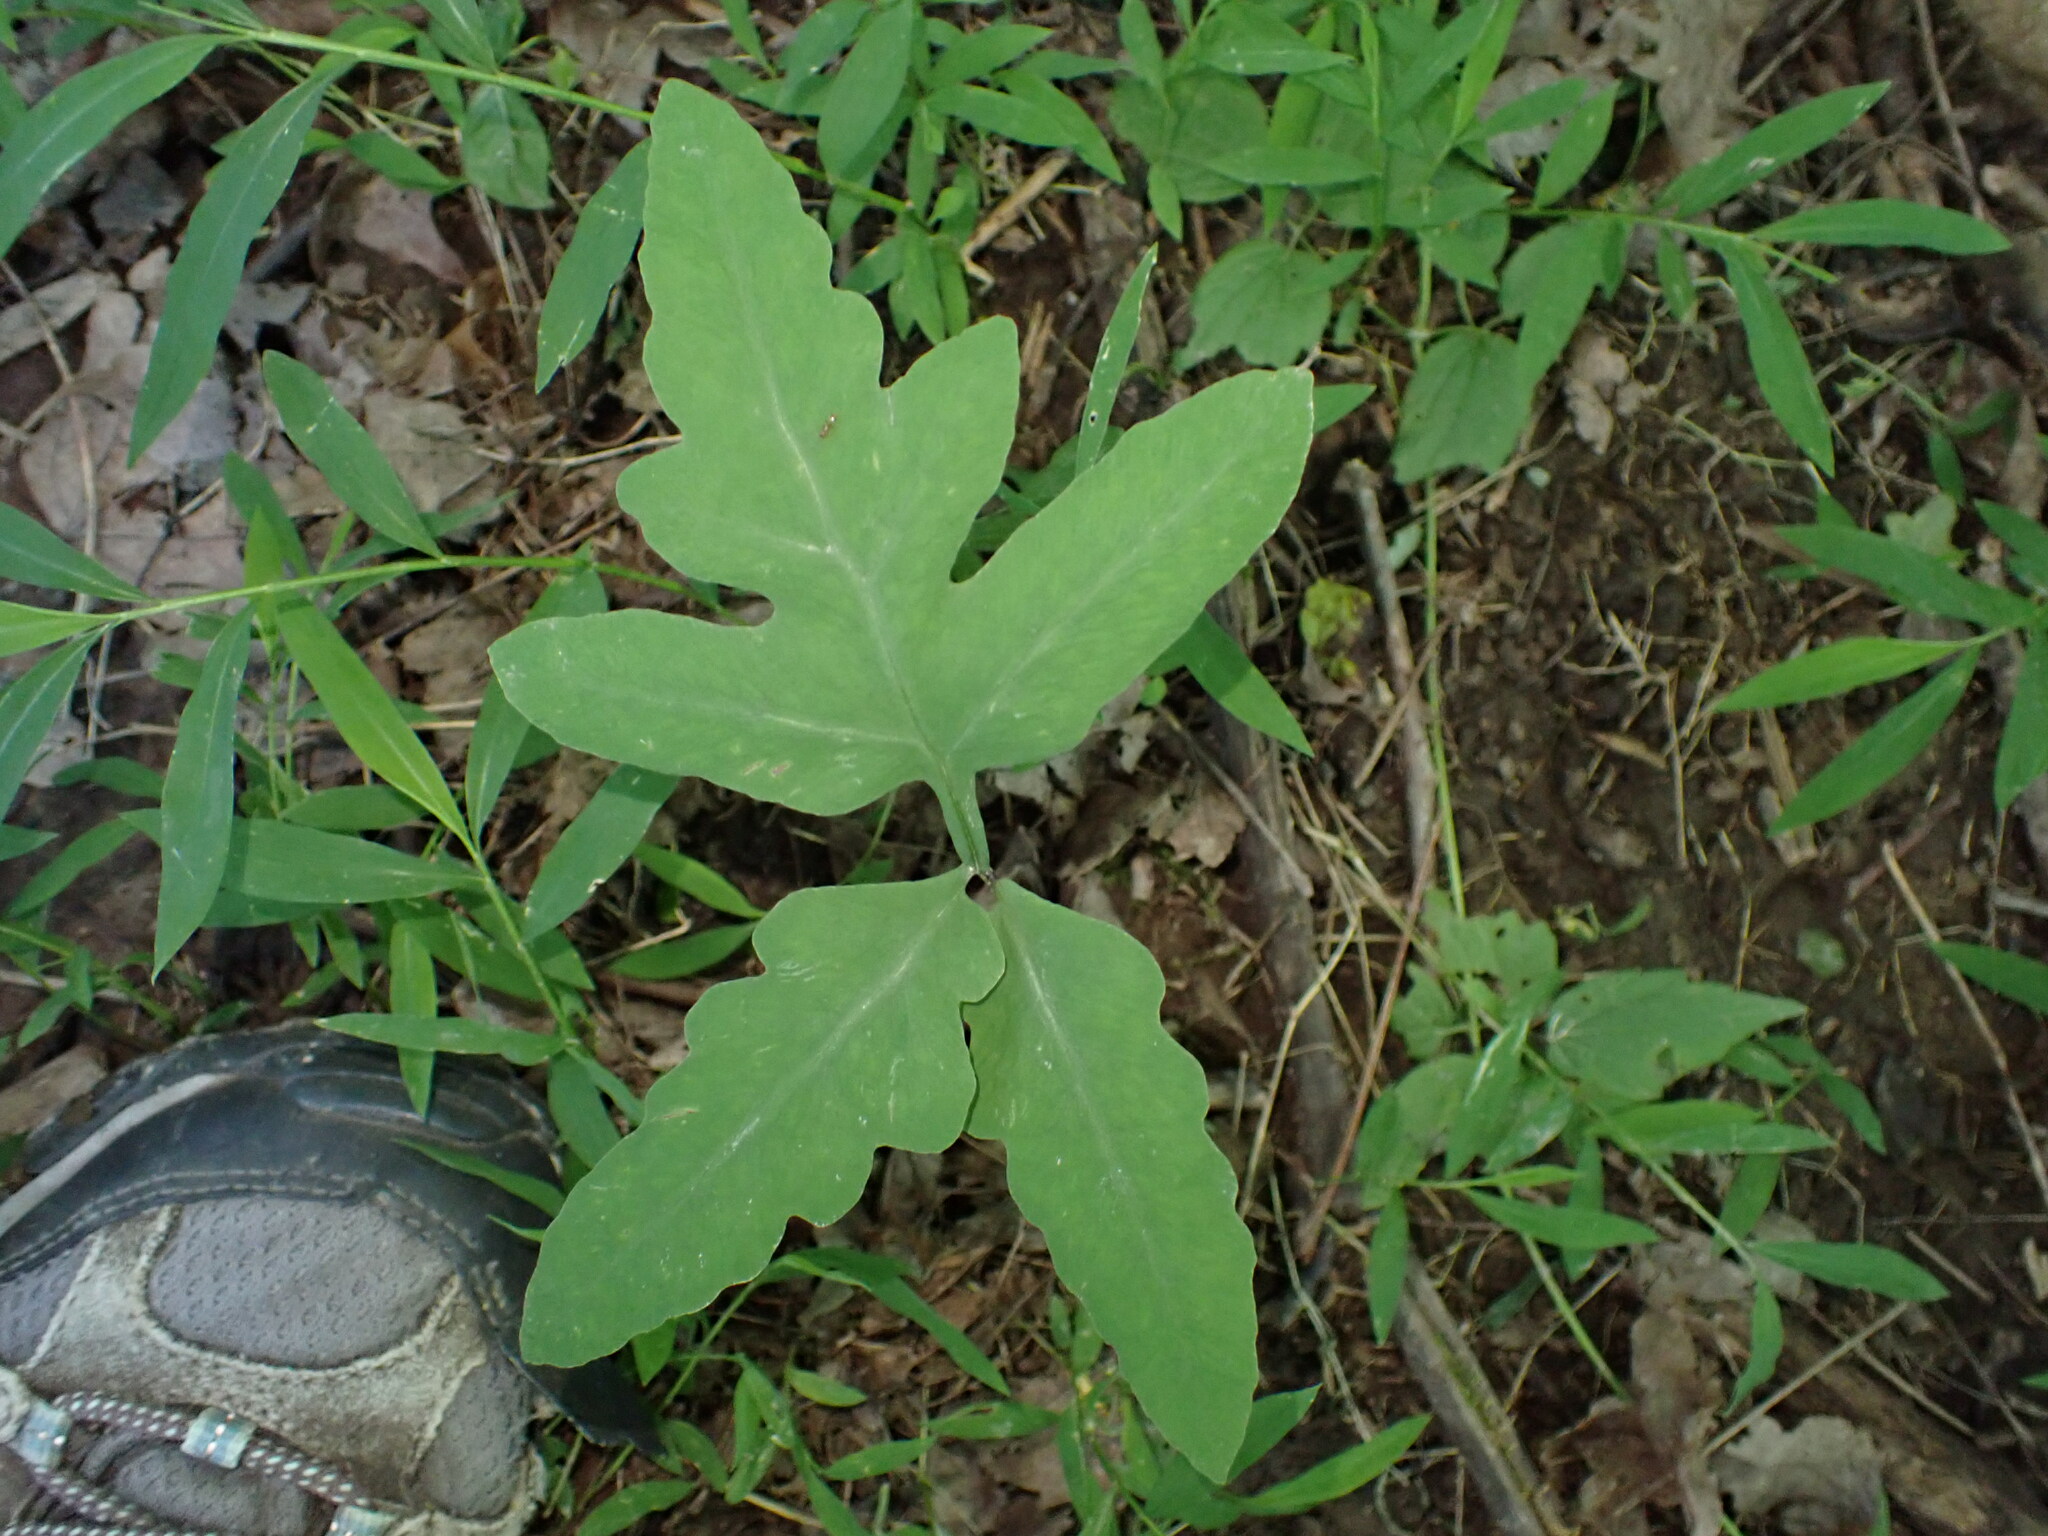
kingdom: Plantae
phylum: Tracheophyta
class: Polypodiopsida
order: Polypodiales
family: Onocleaceae
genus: Onoclea
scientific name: Onoclea sensibilis
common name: Sensitive fern
